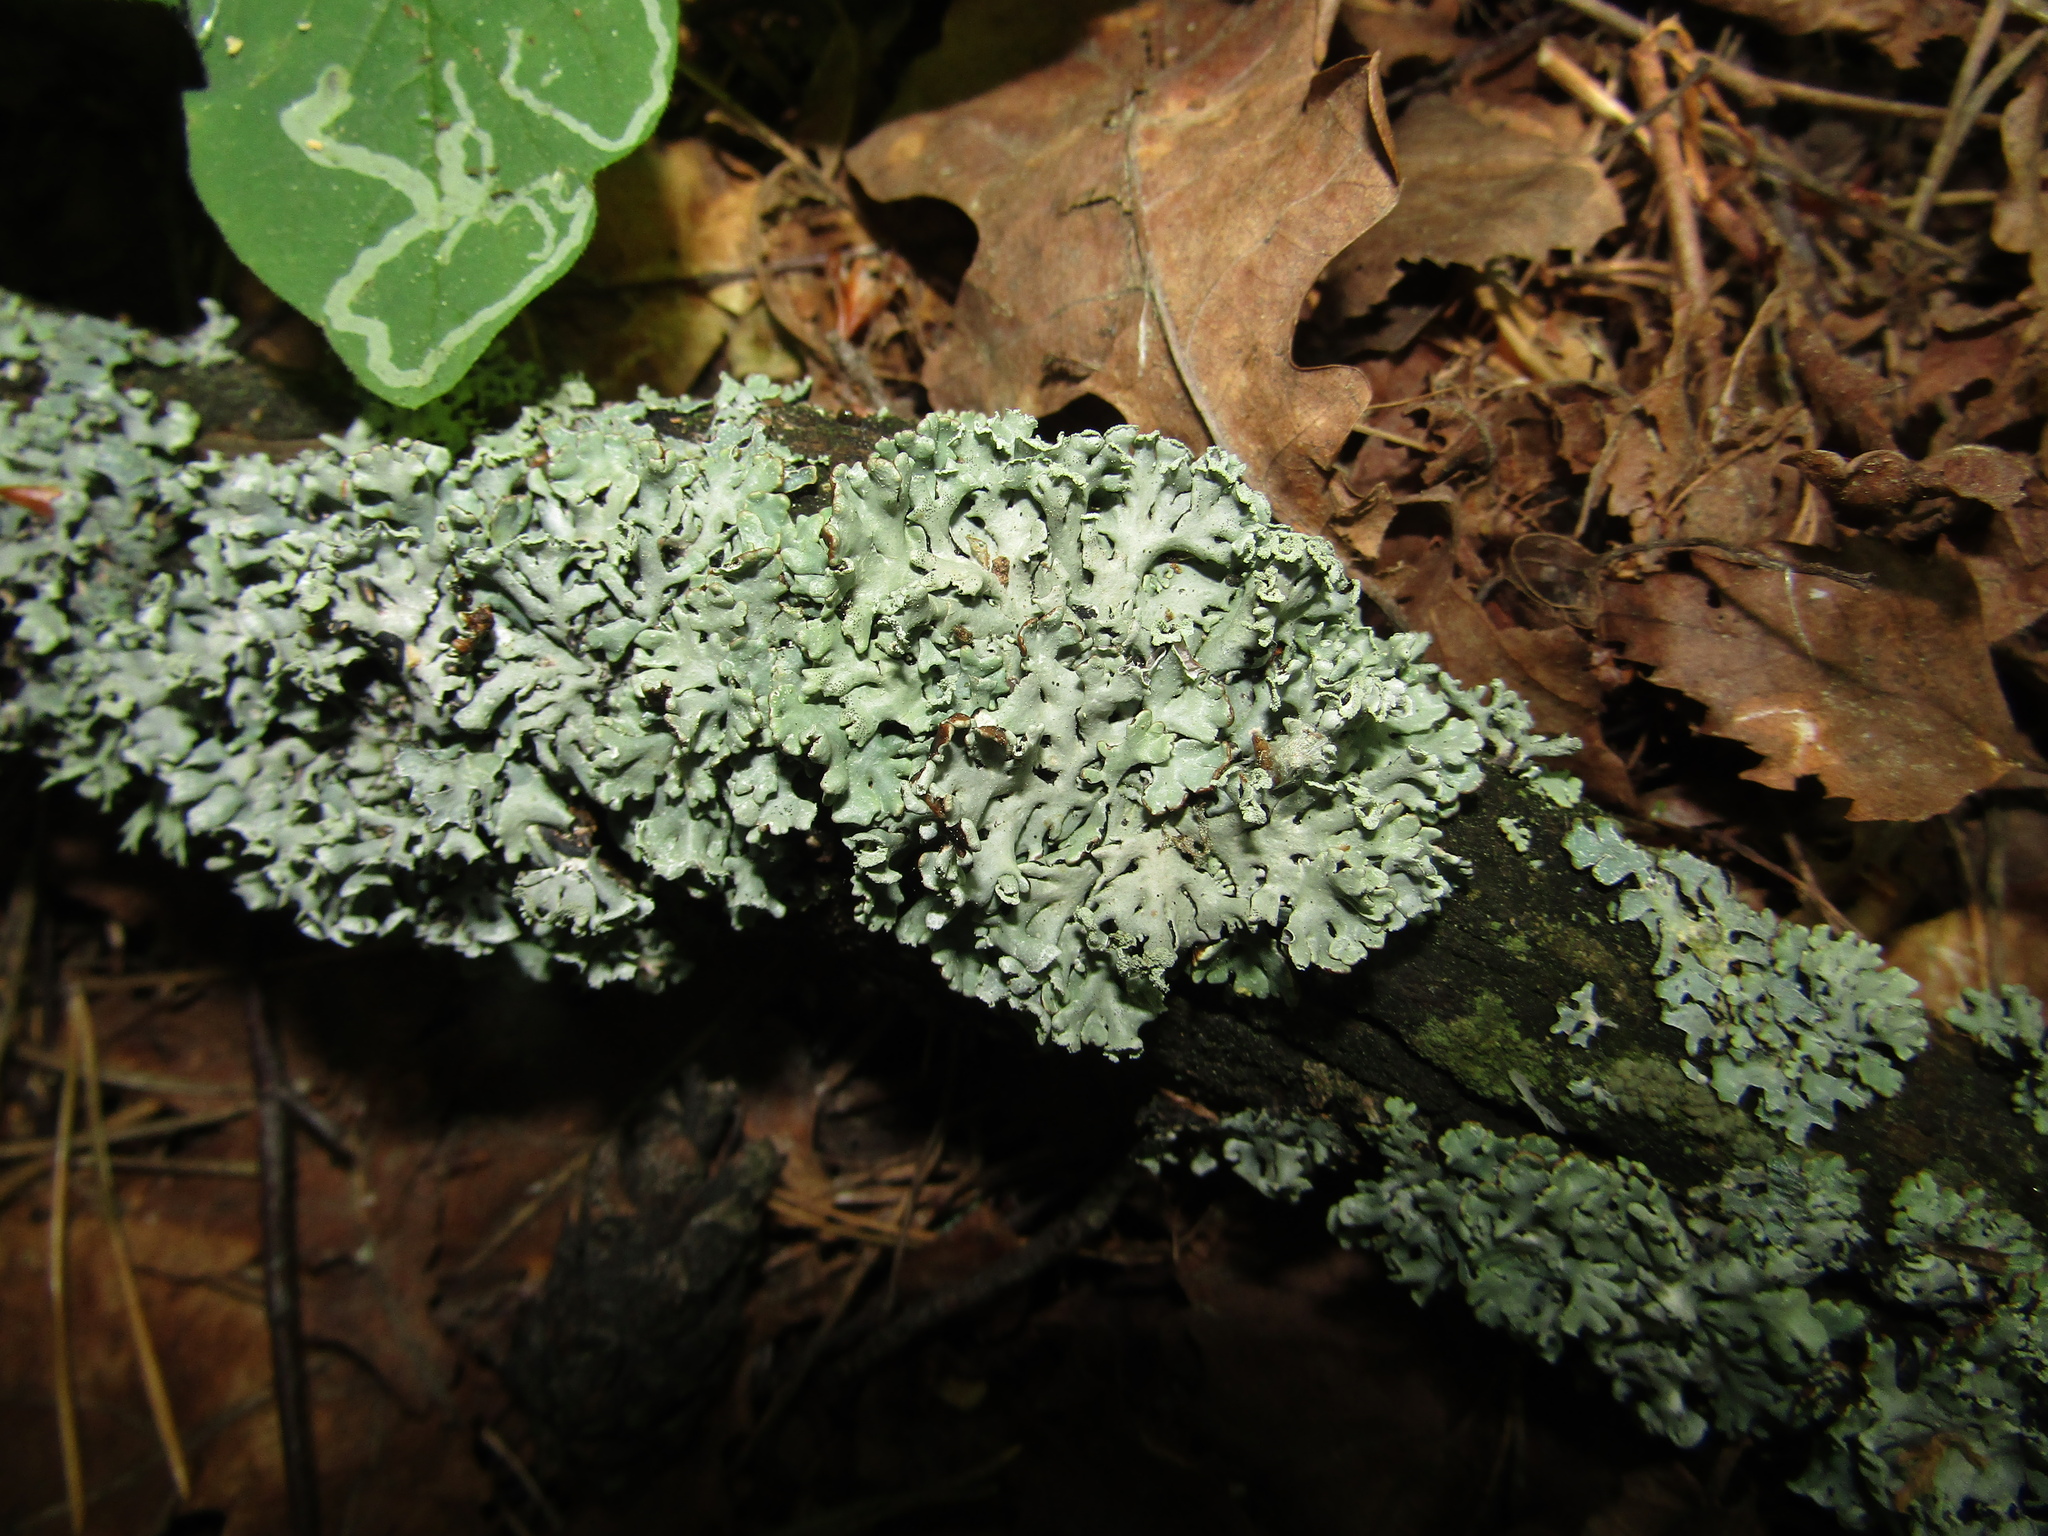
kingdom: Fungi
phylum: Ascomycota
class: Lecanoromycetes
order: Lecanorales
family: Parmeliaceae
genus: Hypogymnia
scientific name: Hypogymnia physodes
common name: Dark crottle
